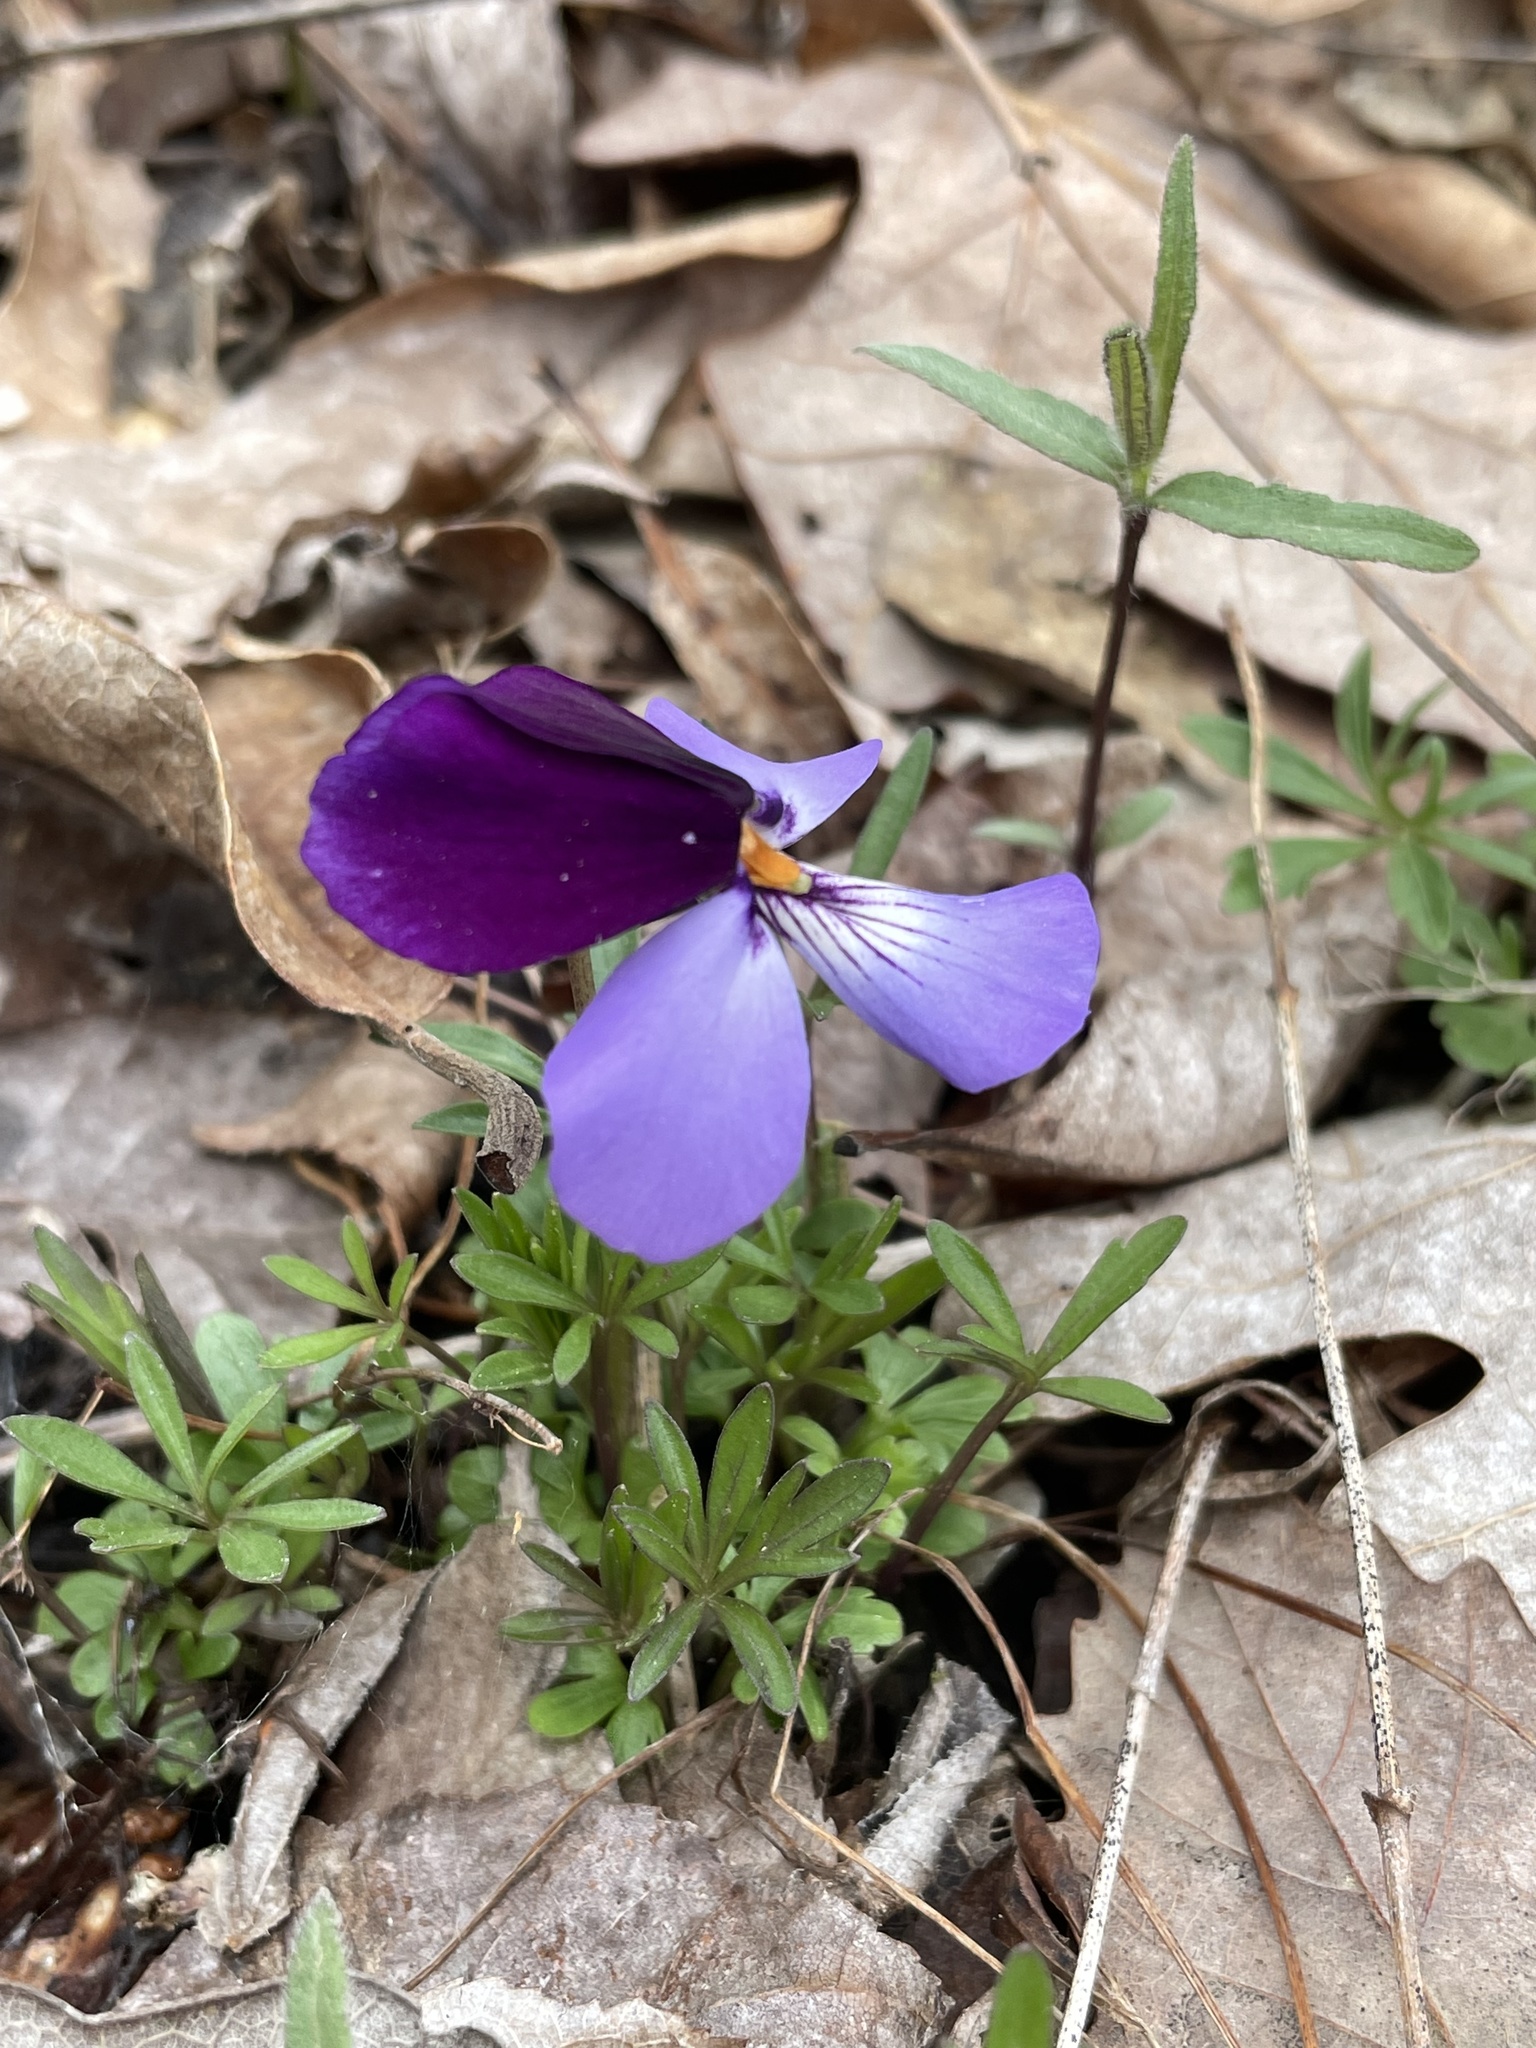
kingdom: Plantae
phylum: Tracheophyta
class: Magnoliopsida
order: Malpighiales
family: Violaceae
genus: Viola
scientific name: Viola pedata
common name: Pansy violet
